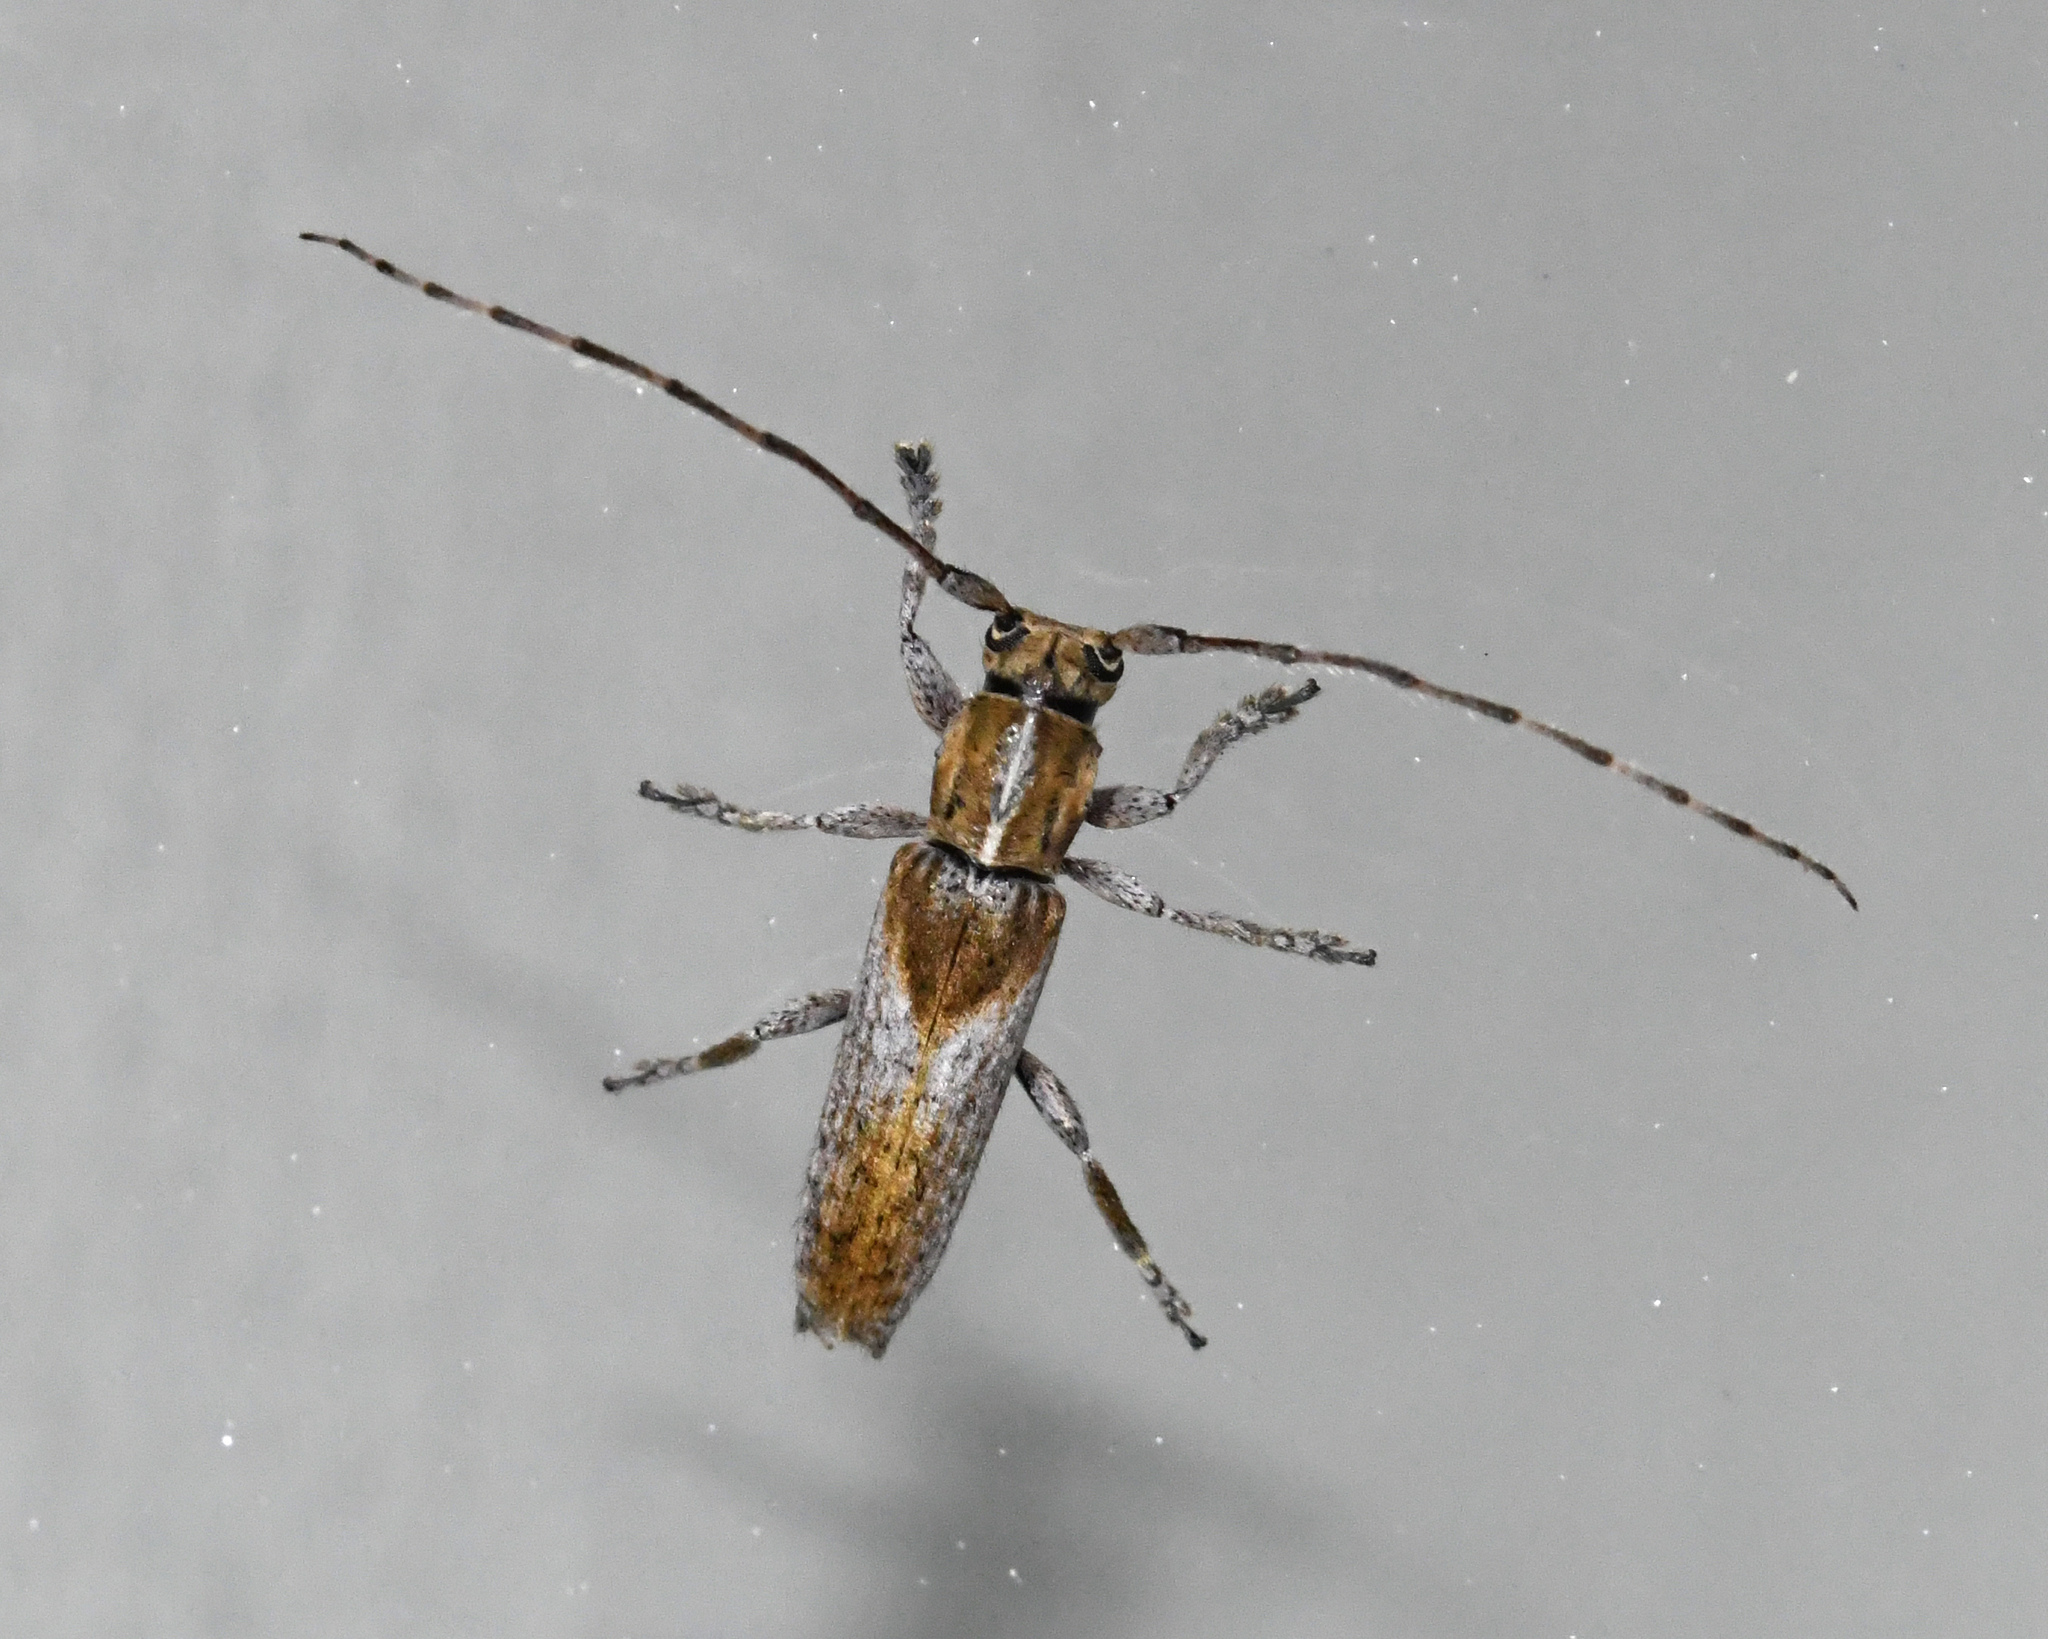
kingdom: Animalia
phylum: Arthropoda
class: Insecta
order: Coleoptera
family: Cerambycidae
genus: Ataxia
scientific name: Ataxia haitiensis
